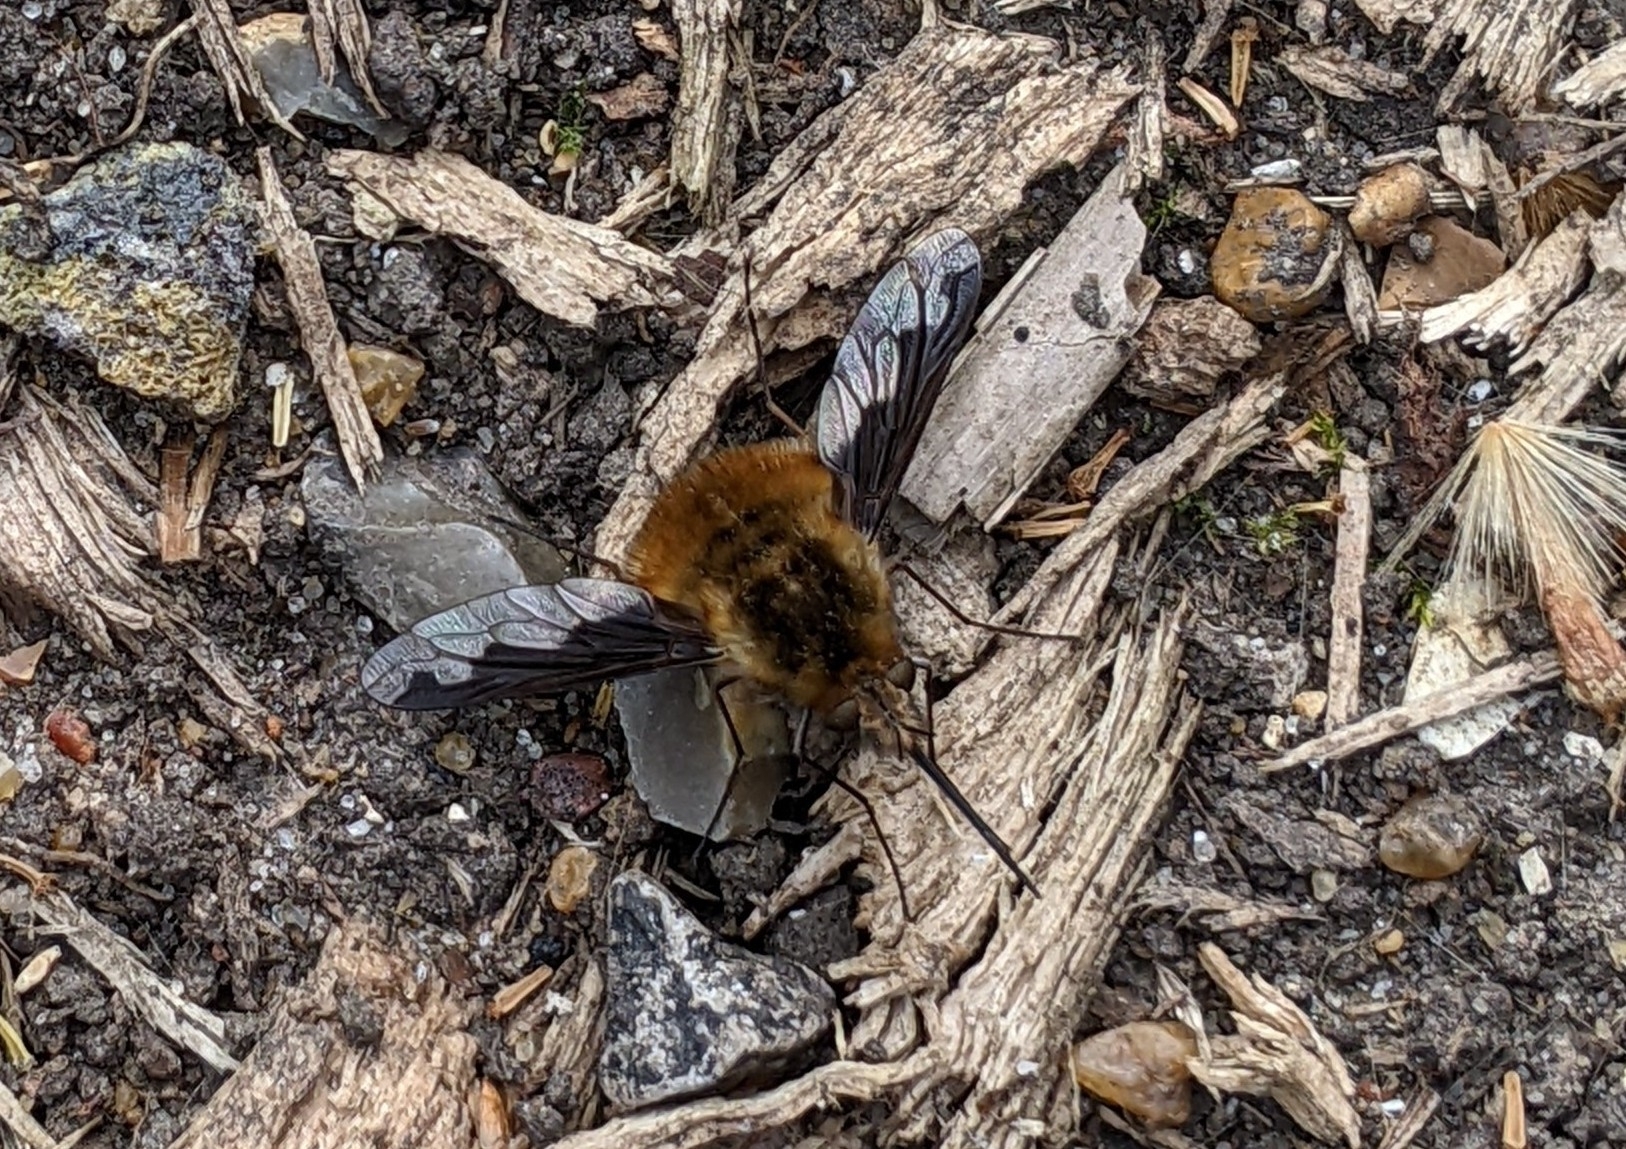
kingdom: Animalia
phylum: Arthropoda
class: Insecta
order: Diptera
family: Bombyliidae
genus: Bombylius
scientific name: Bombylius major
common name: Bee fly
